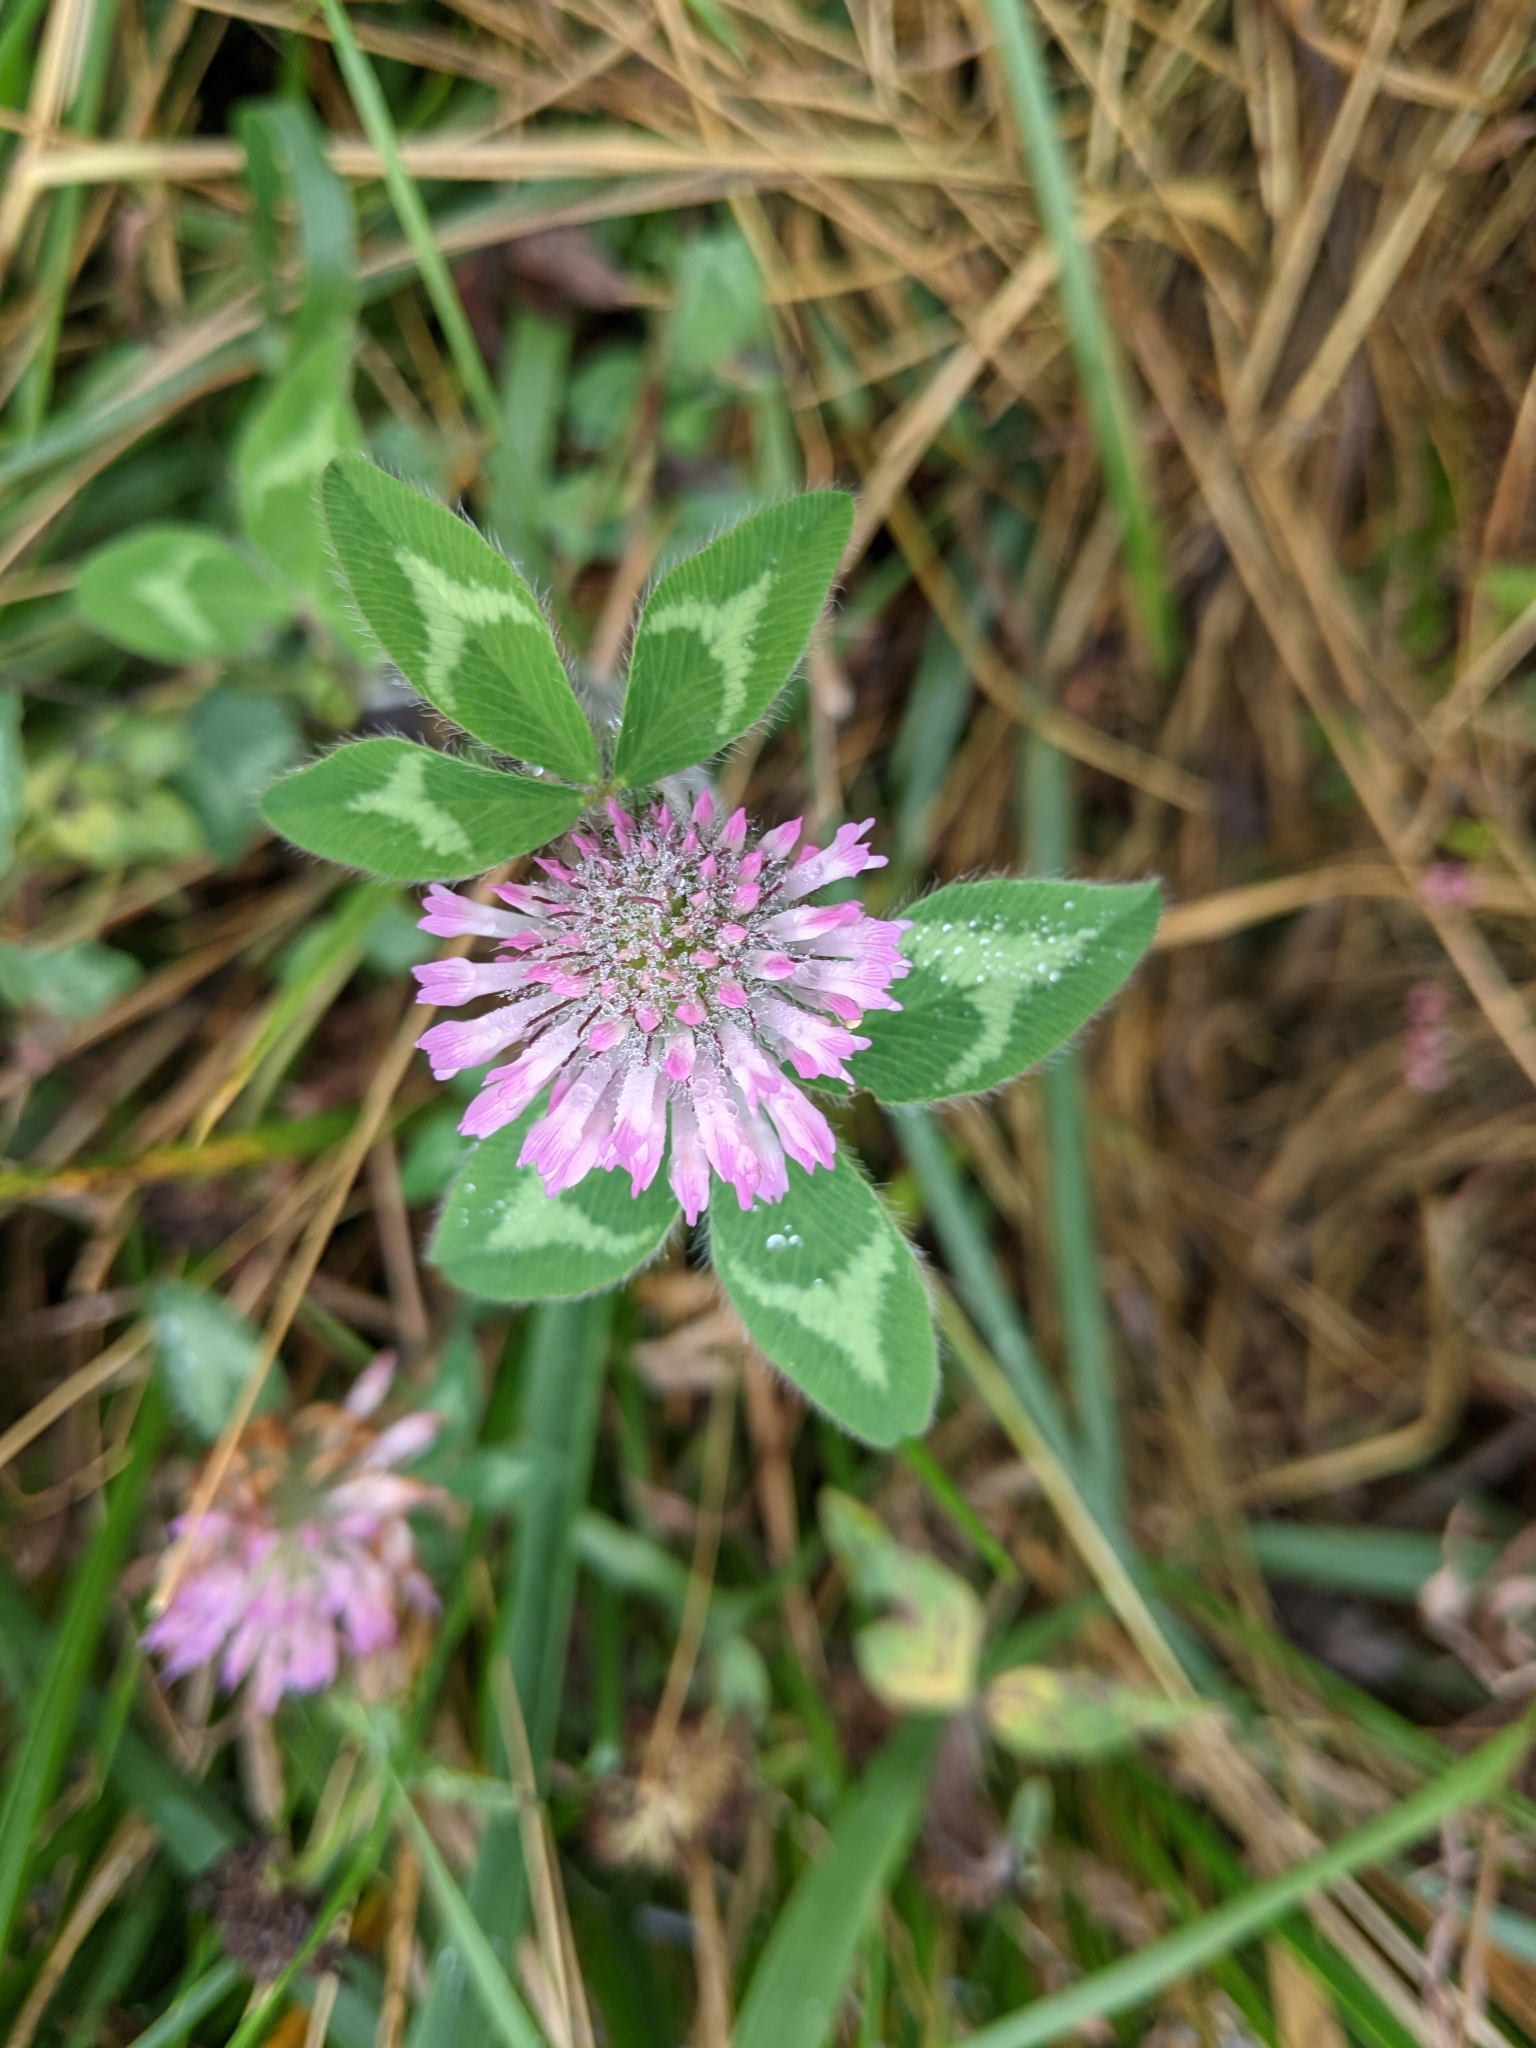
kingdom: Plantae
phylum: Tracheophyta
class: Magnoliopsida
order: Fabales
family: Fabaceae
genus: Trifolium
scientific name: Trifolium pratense
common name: Red clover
